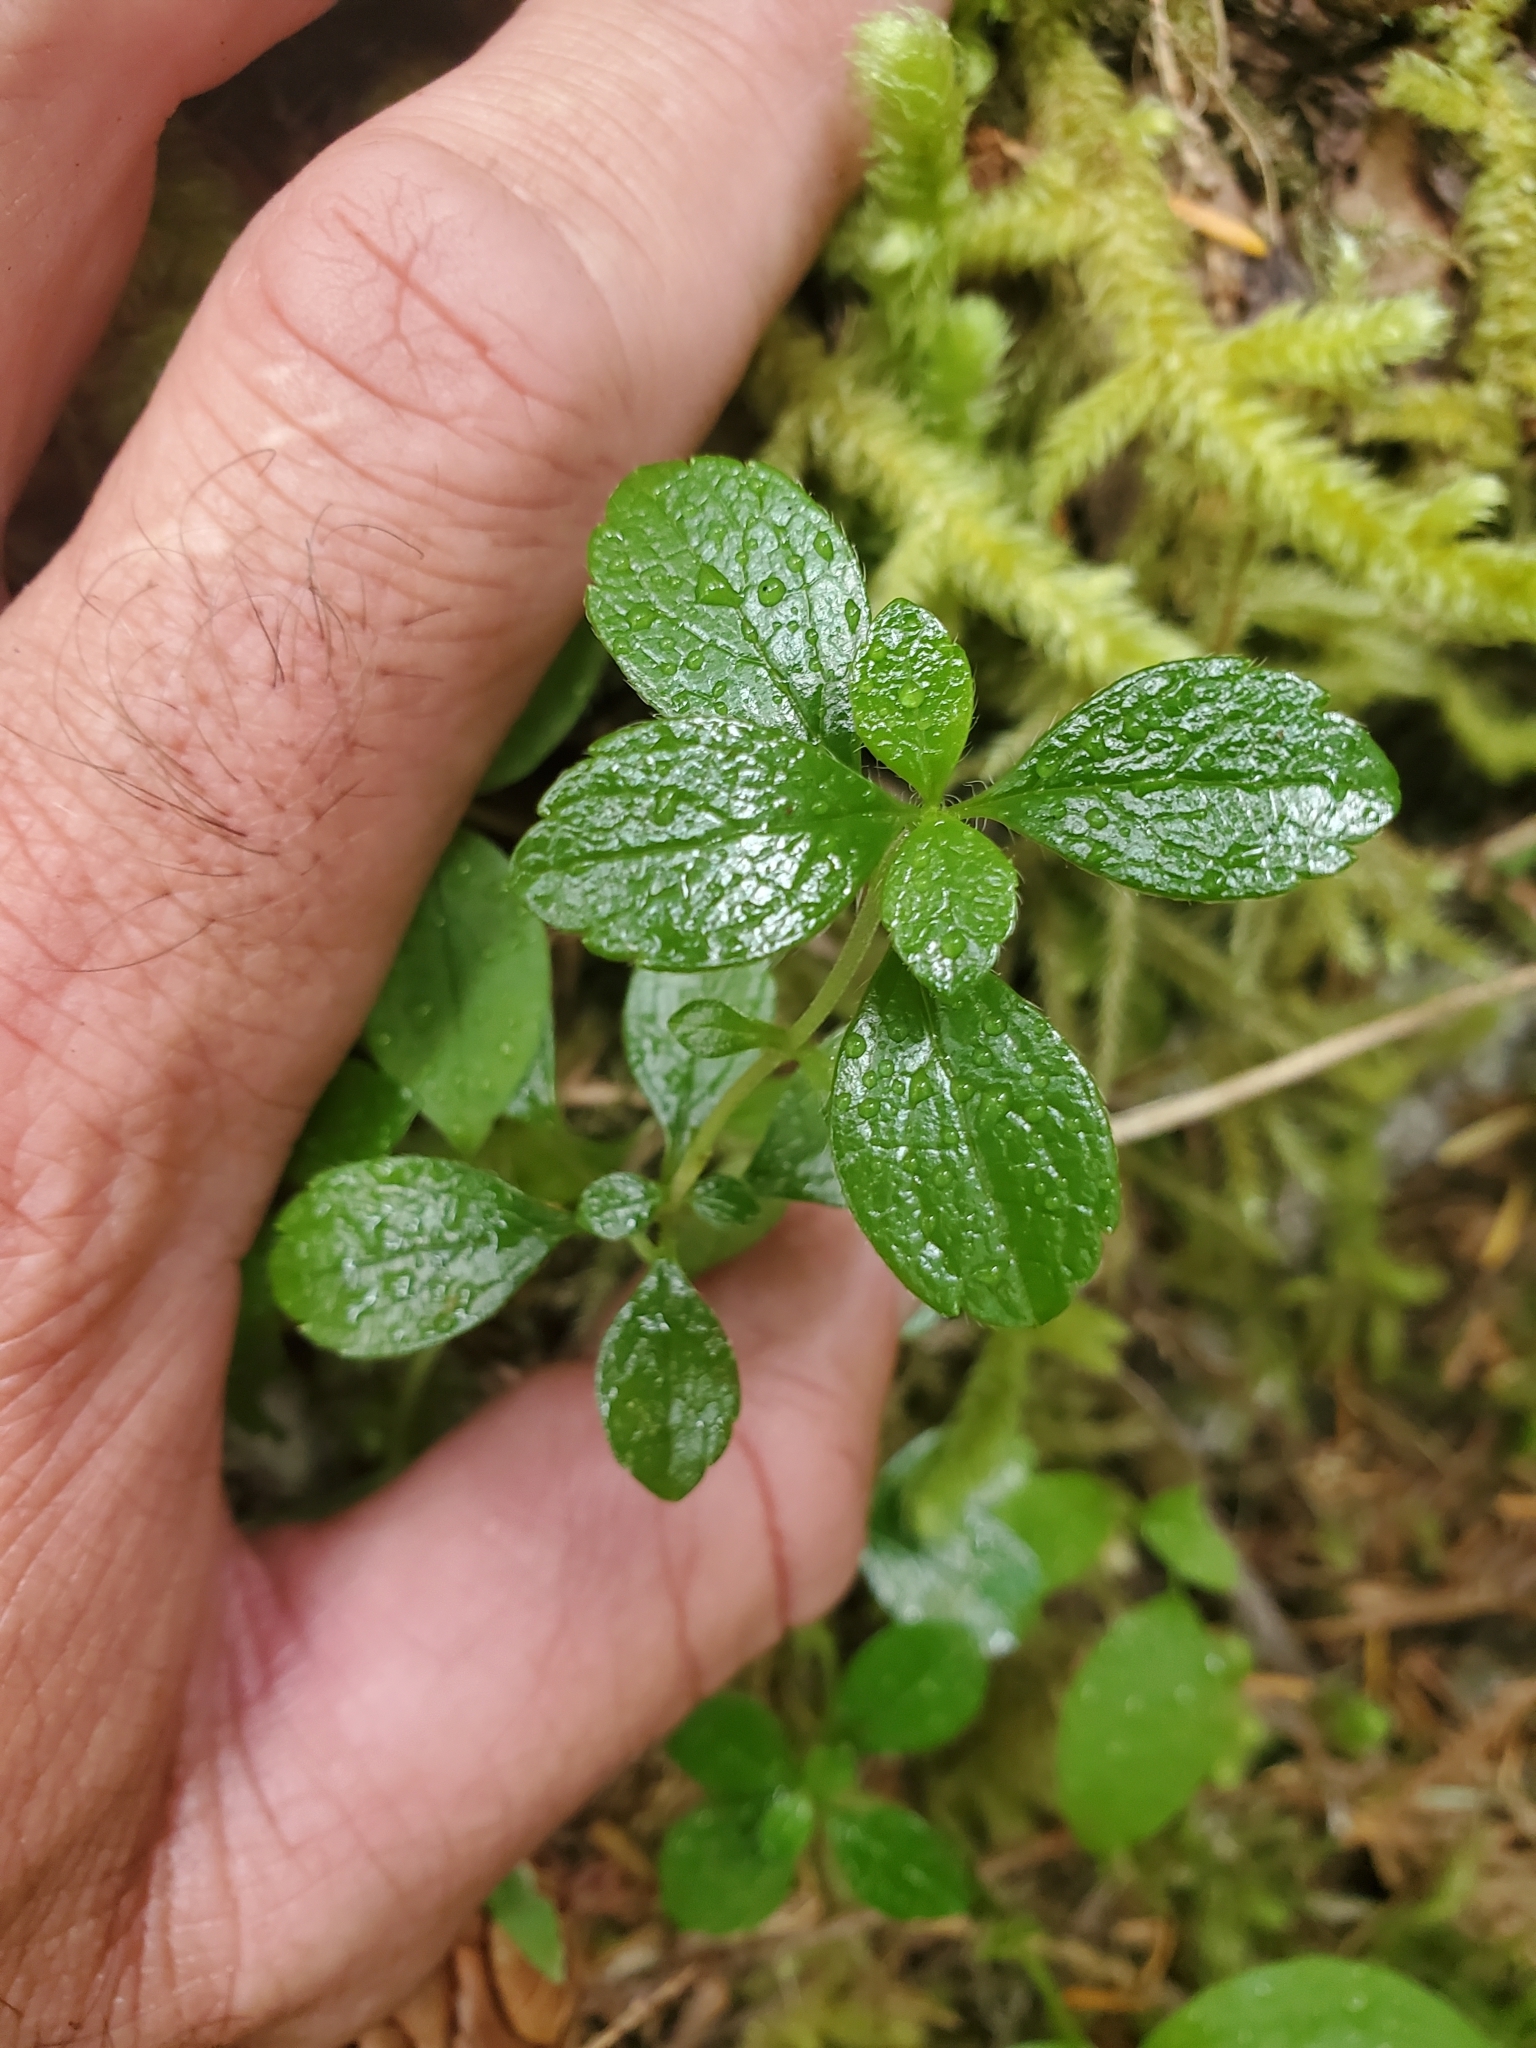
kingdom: Plantae
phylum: Tracheophyta
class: Magnoliopsida
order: Dipsacales
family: Caprifoliaceae
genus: Linnaea
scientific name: Linnaea borealis
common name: Twinflower
